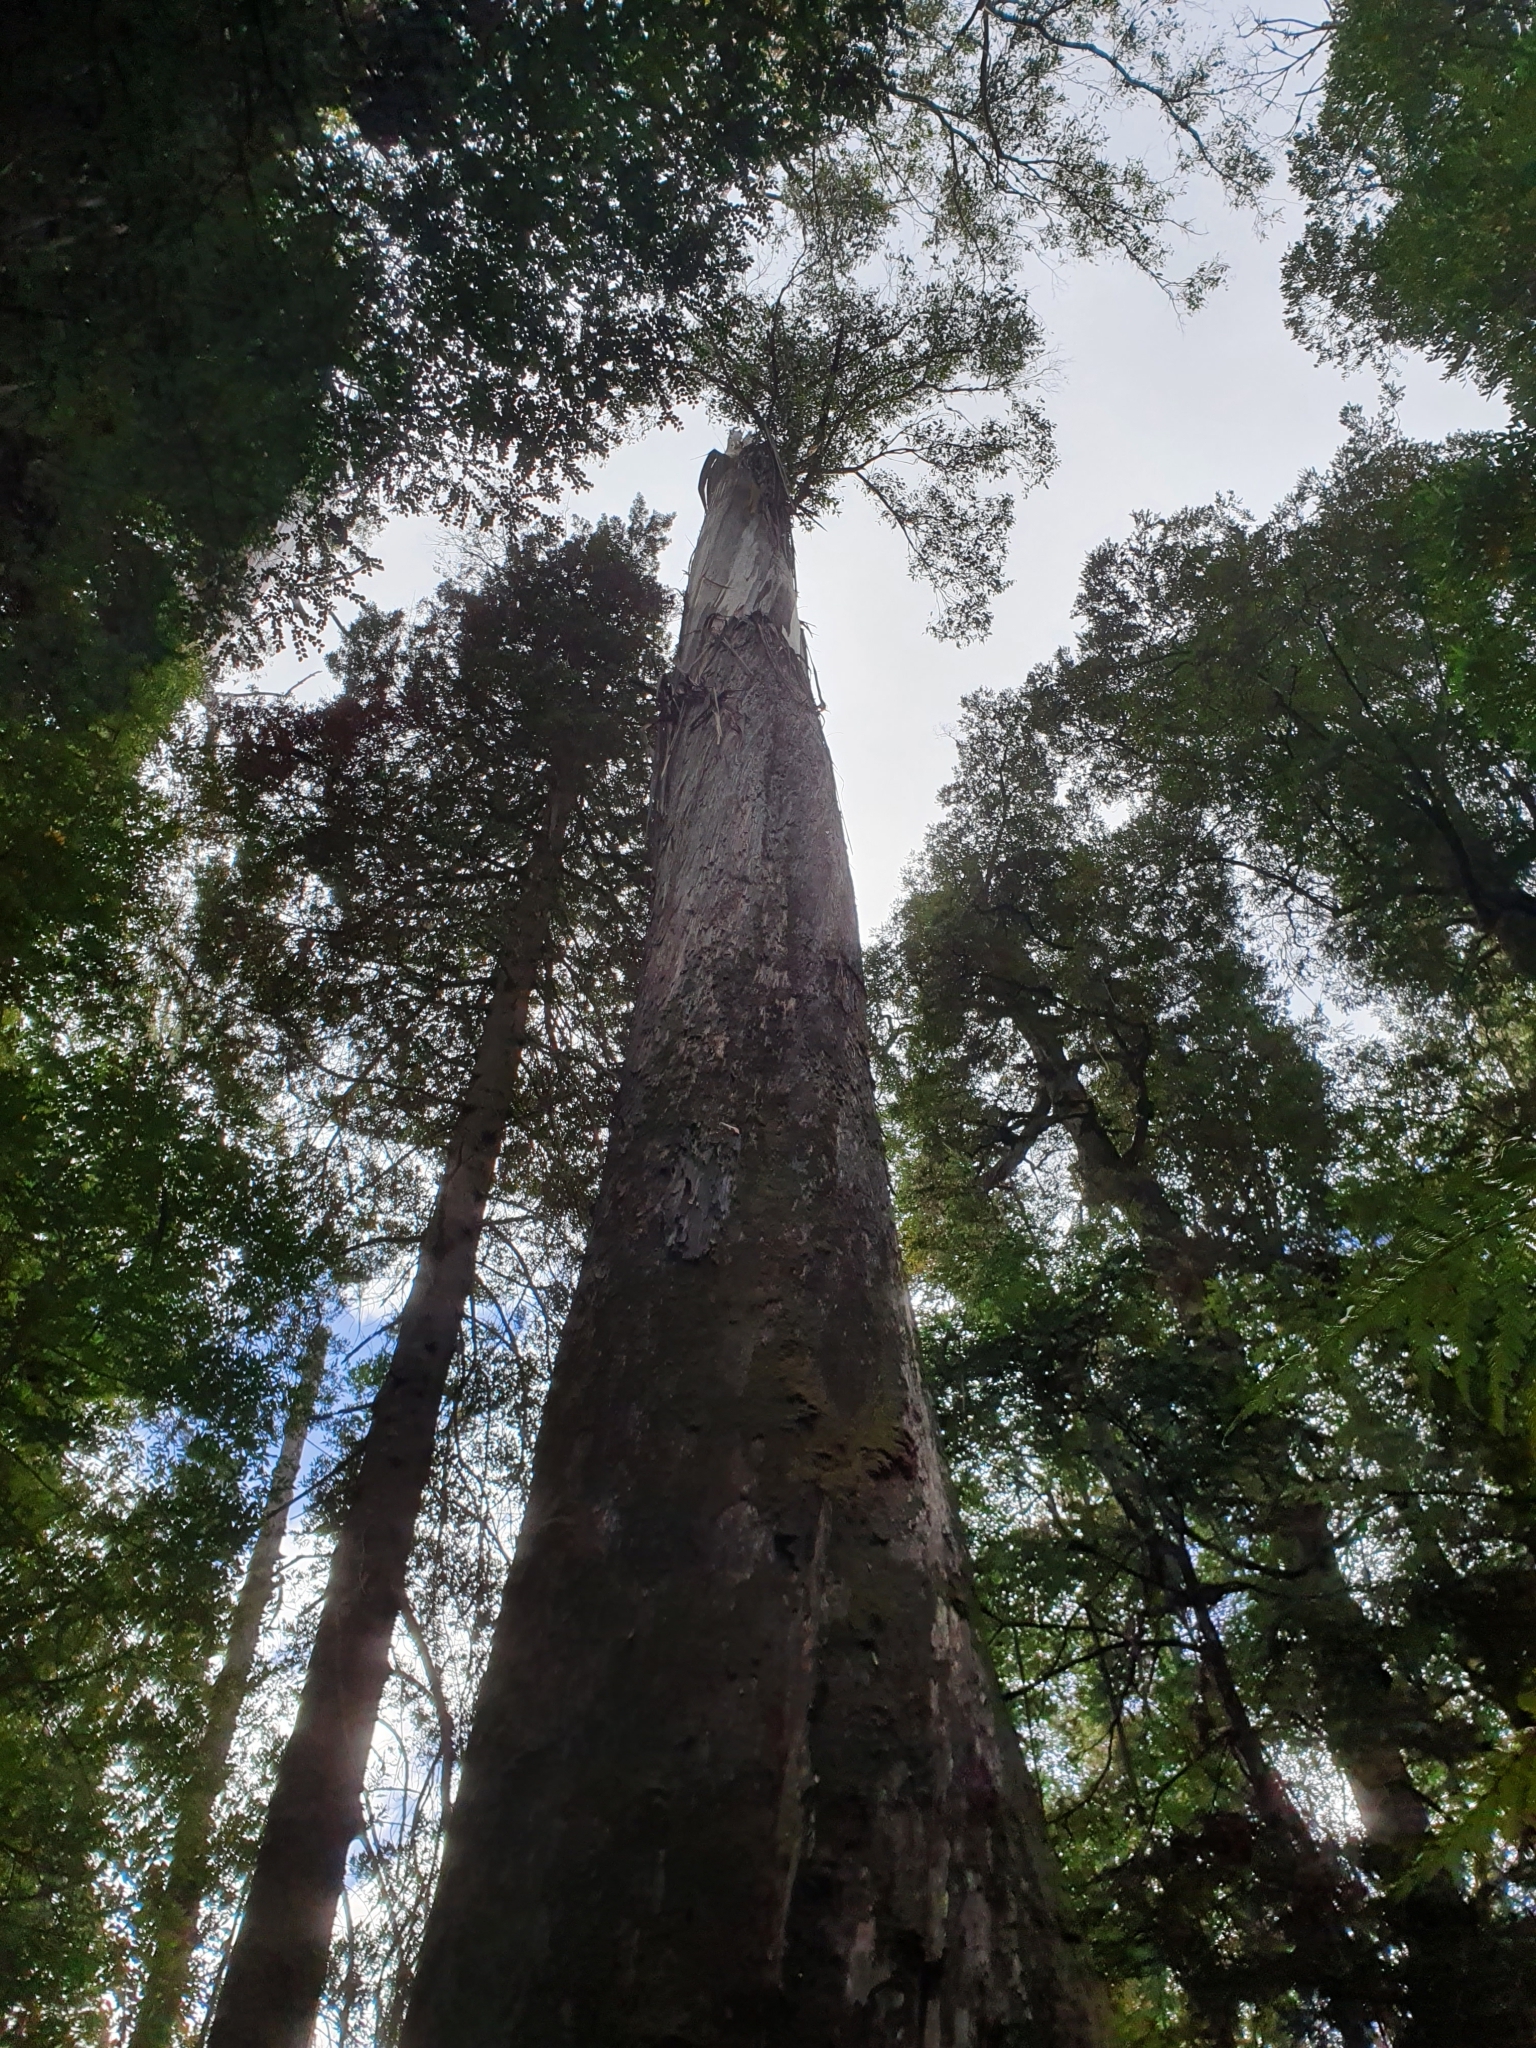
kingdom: Plantae
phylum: Tracheophyta
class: Magnoliopsida
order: Myrtales
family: Myrtaceae
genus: Eucalyptus
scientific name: Eucalyptus regnans
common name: Stringy gum
